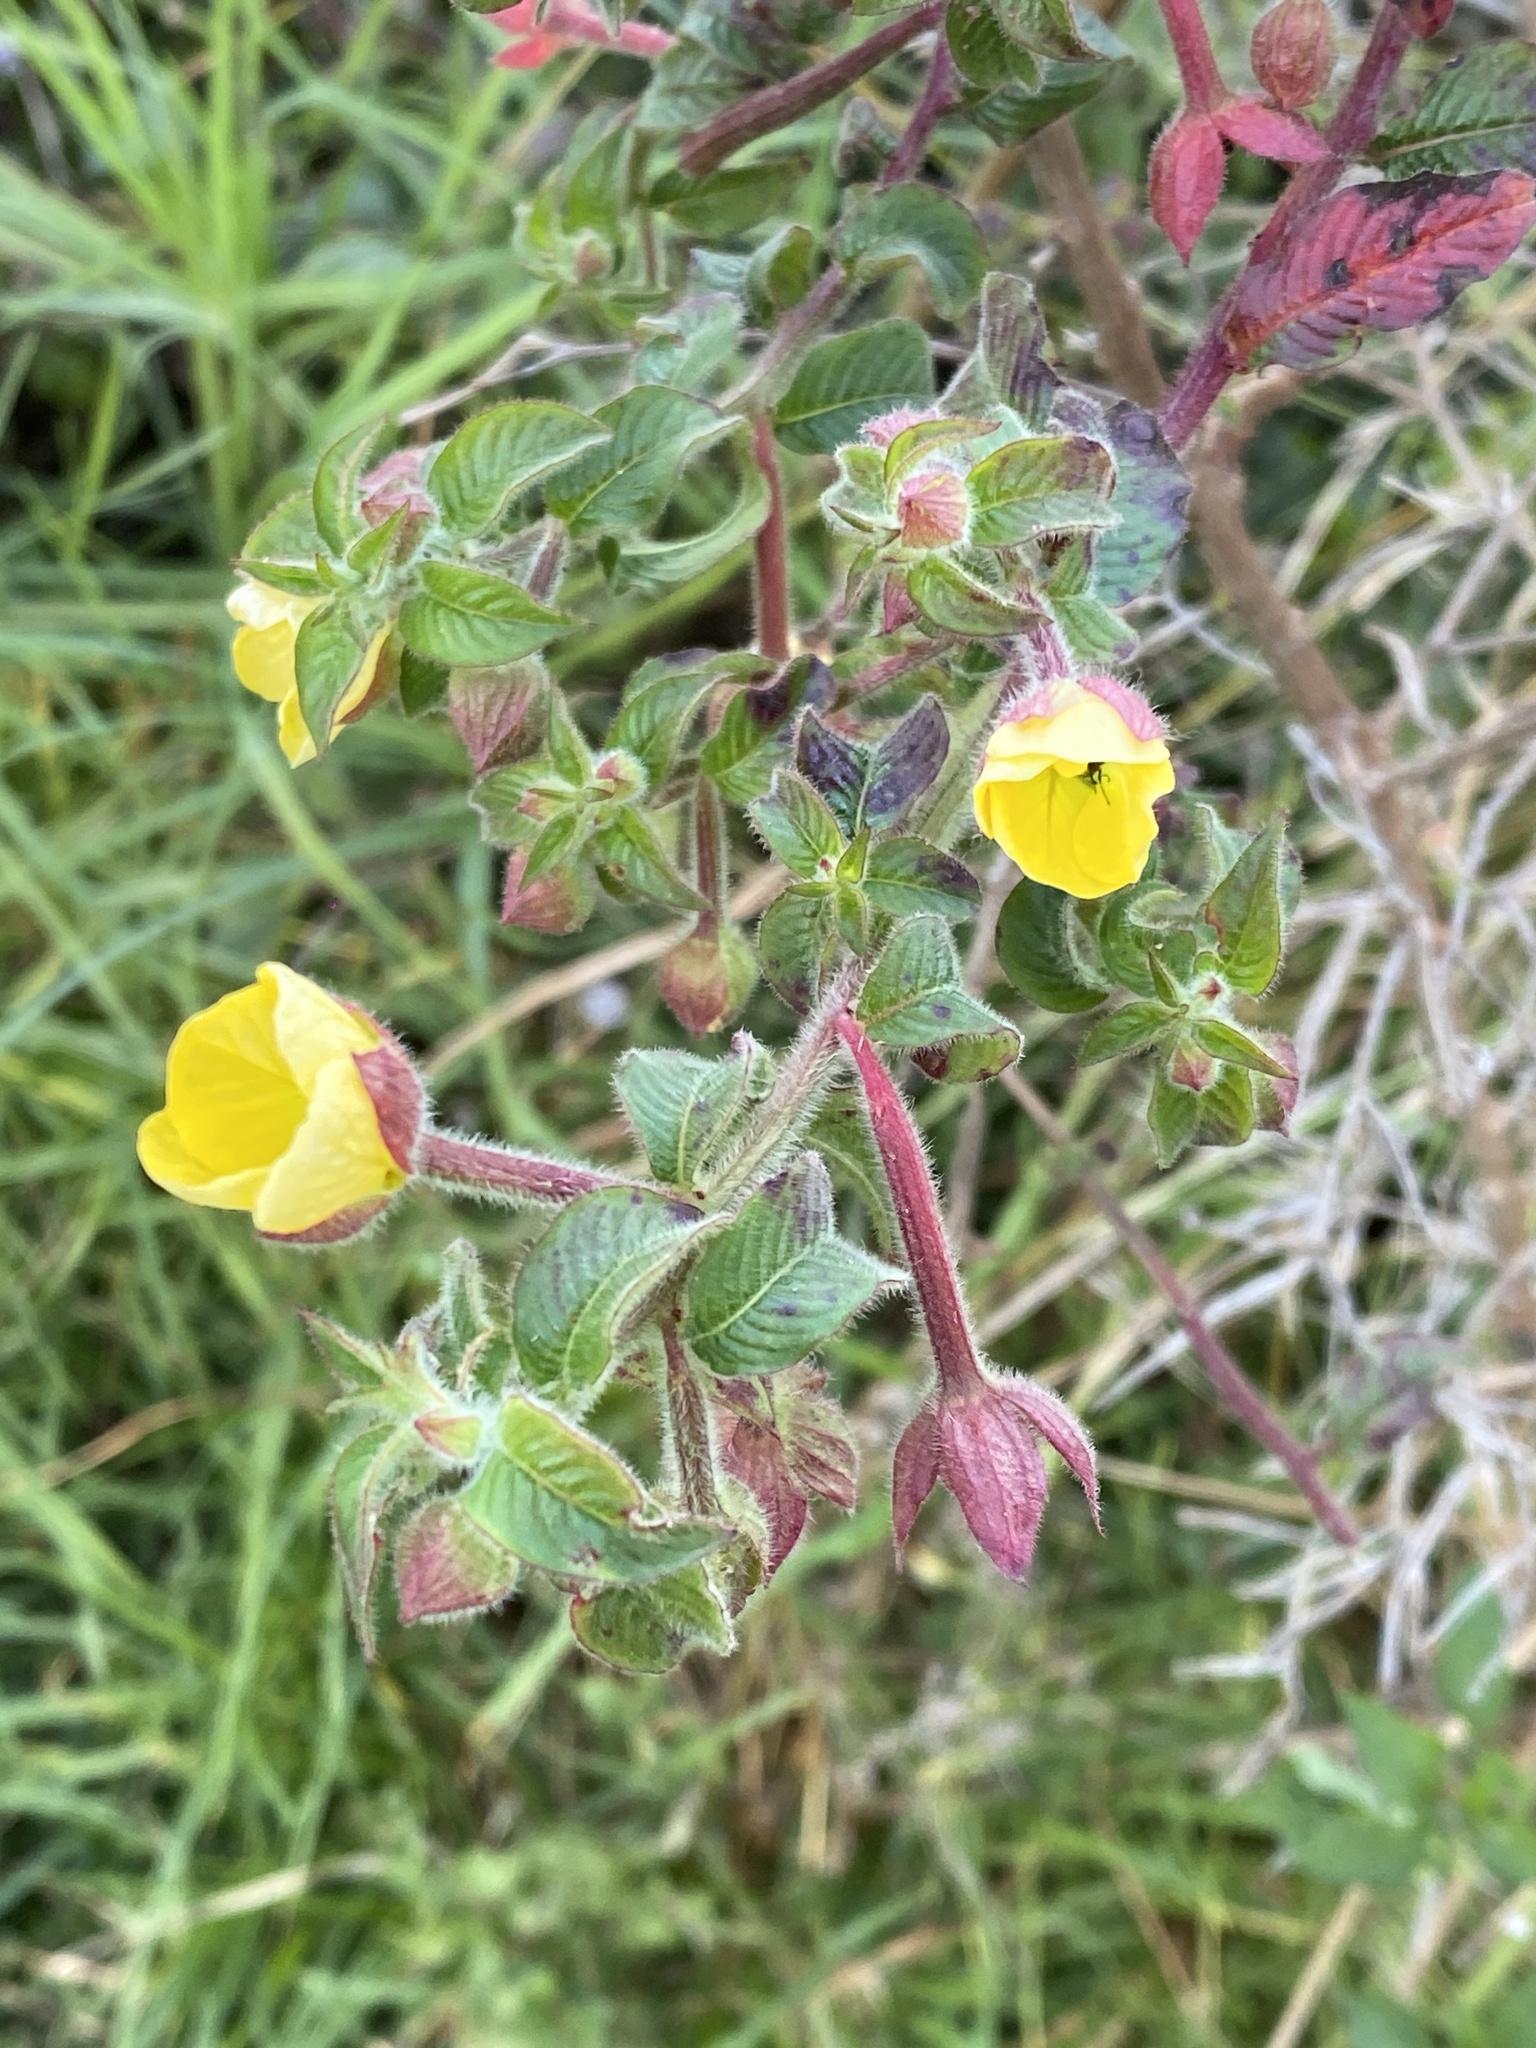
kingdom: Plantae
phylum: Tracheophyta
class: Magnoliopsida
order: Myrtales
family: Onagraceae
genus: Ludwigia
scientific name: Ludwigia octovalvis
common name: Water-primrose
